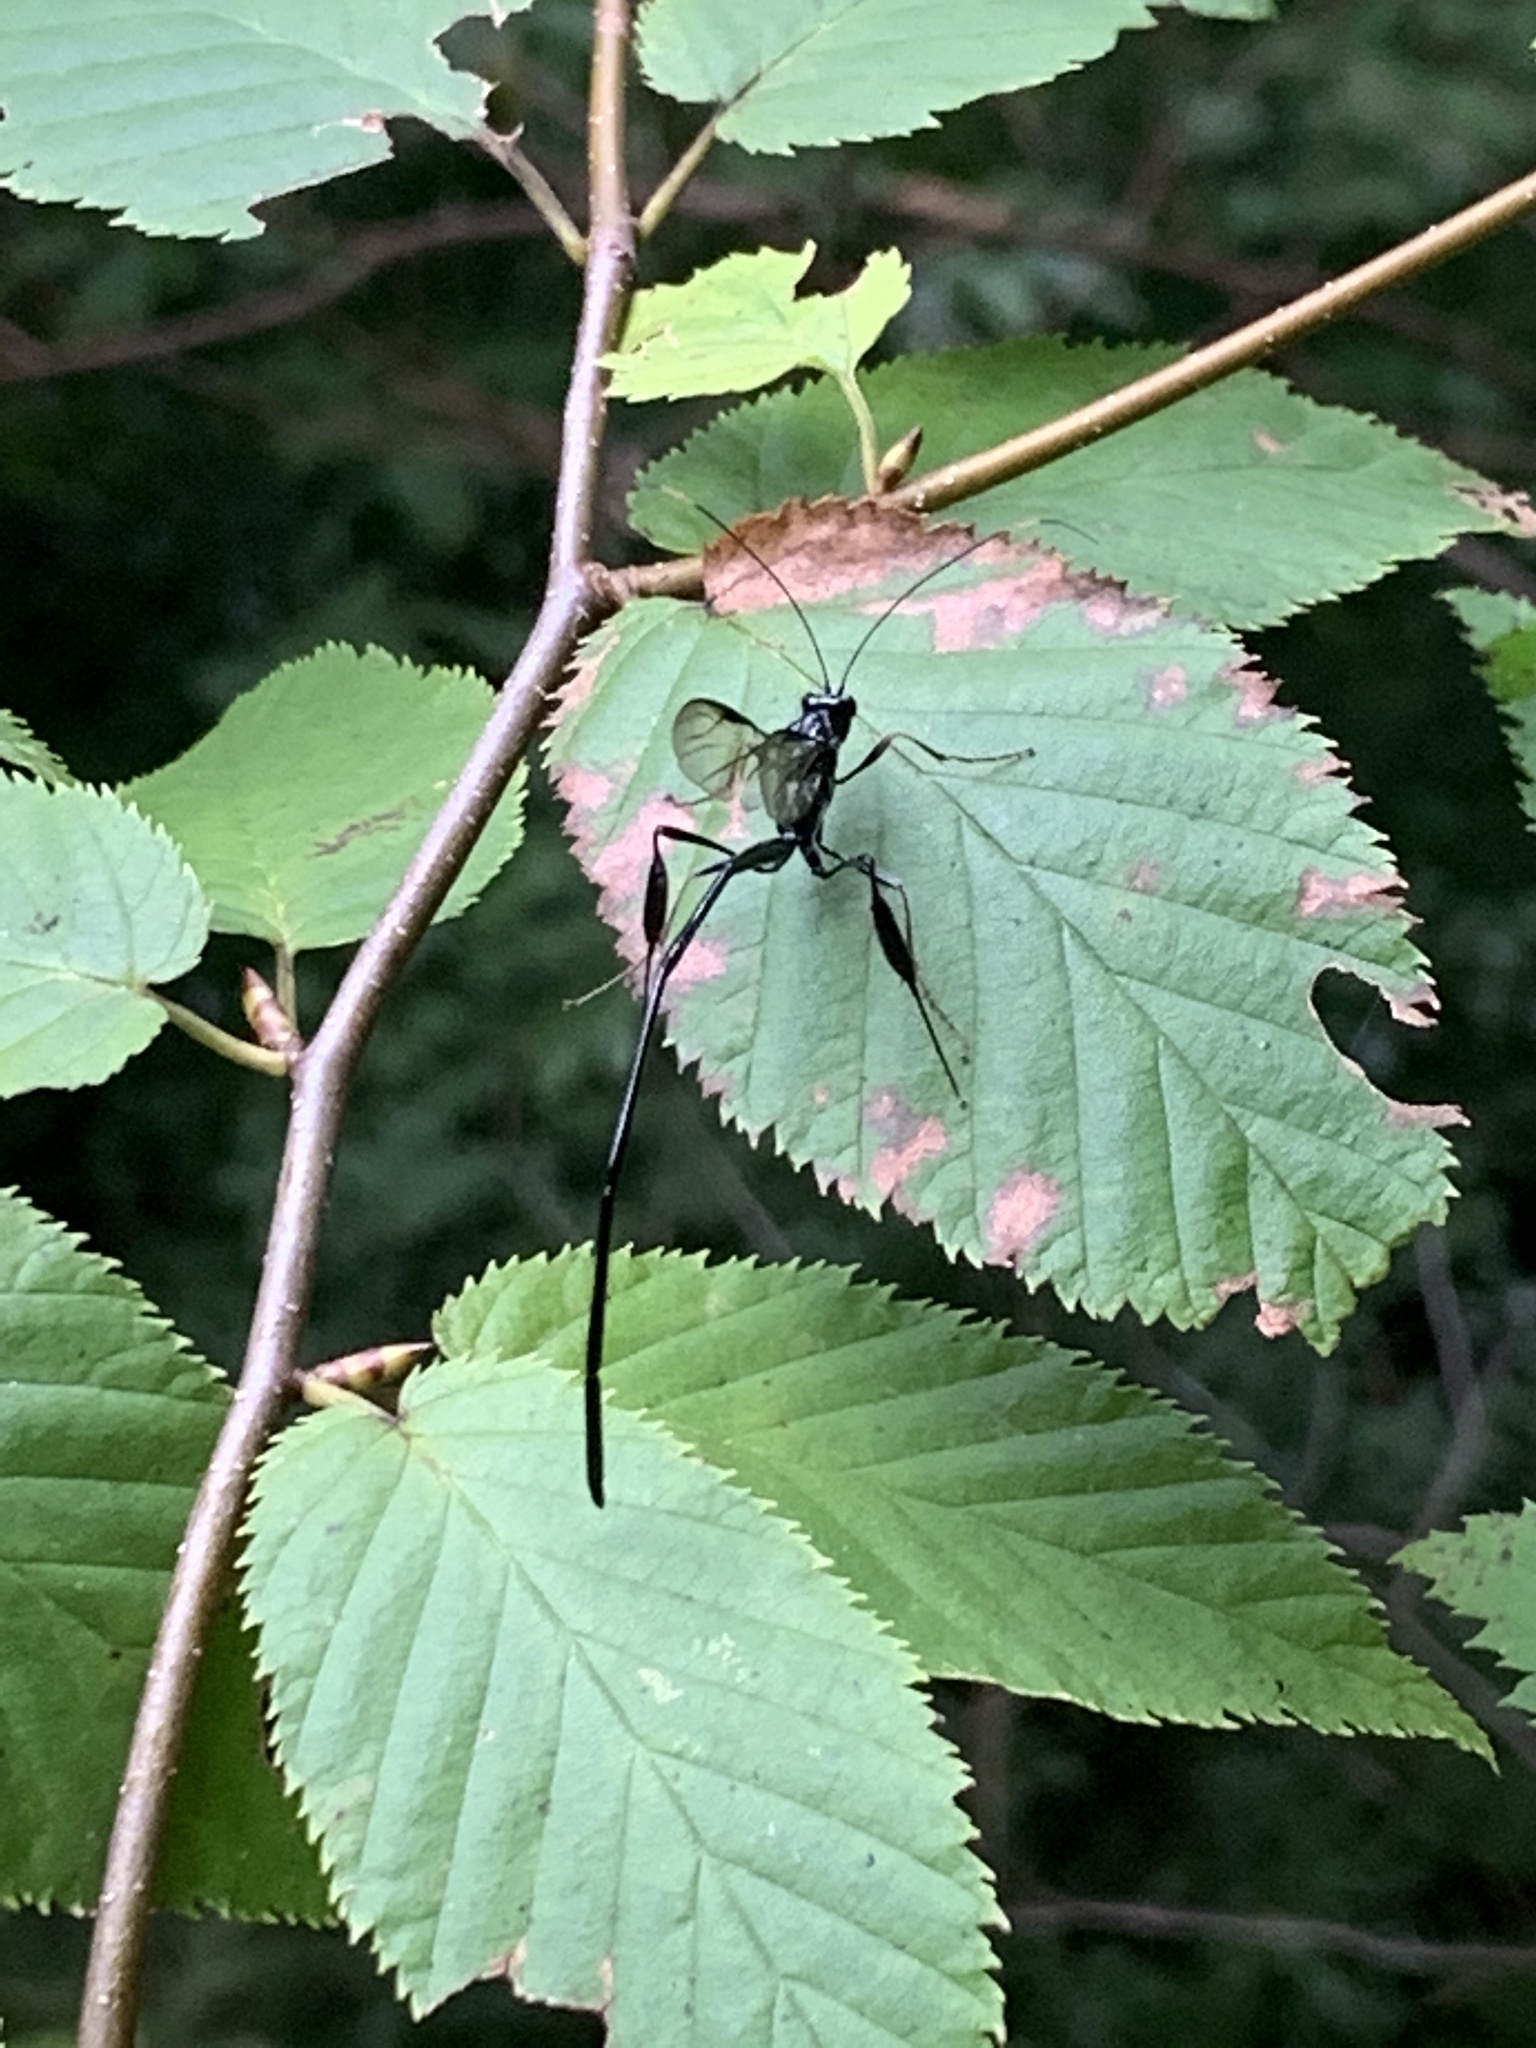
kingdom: Animalia
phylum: Arthropoda
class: Insecta
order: Hymenoptera
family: Pelecinidae
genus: Pelecinus
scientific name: Pelecinus polyturator
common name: American pelecinid wasp
